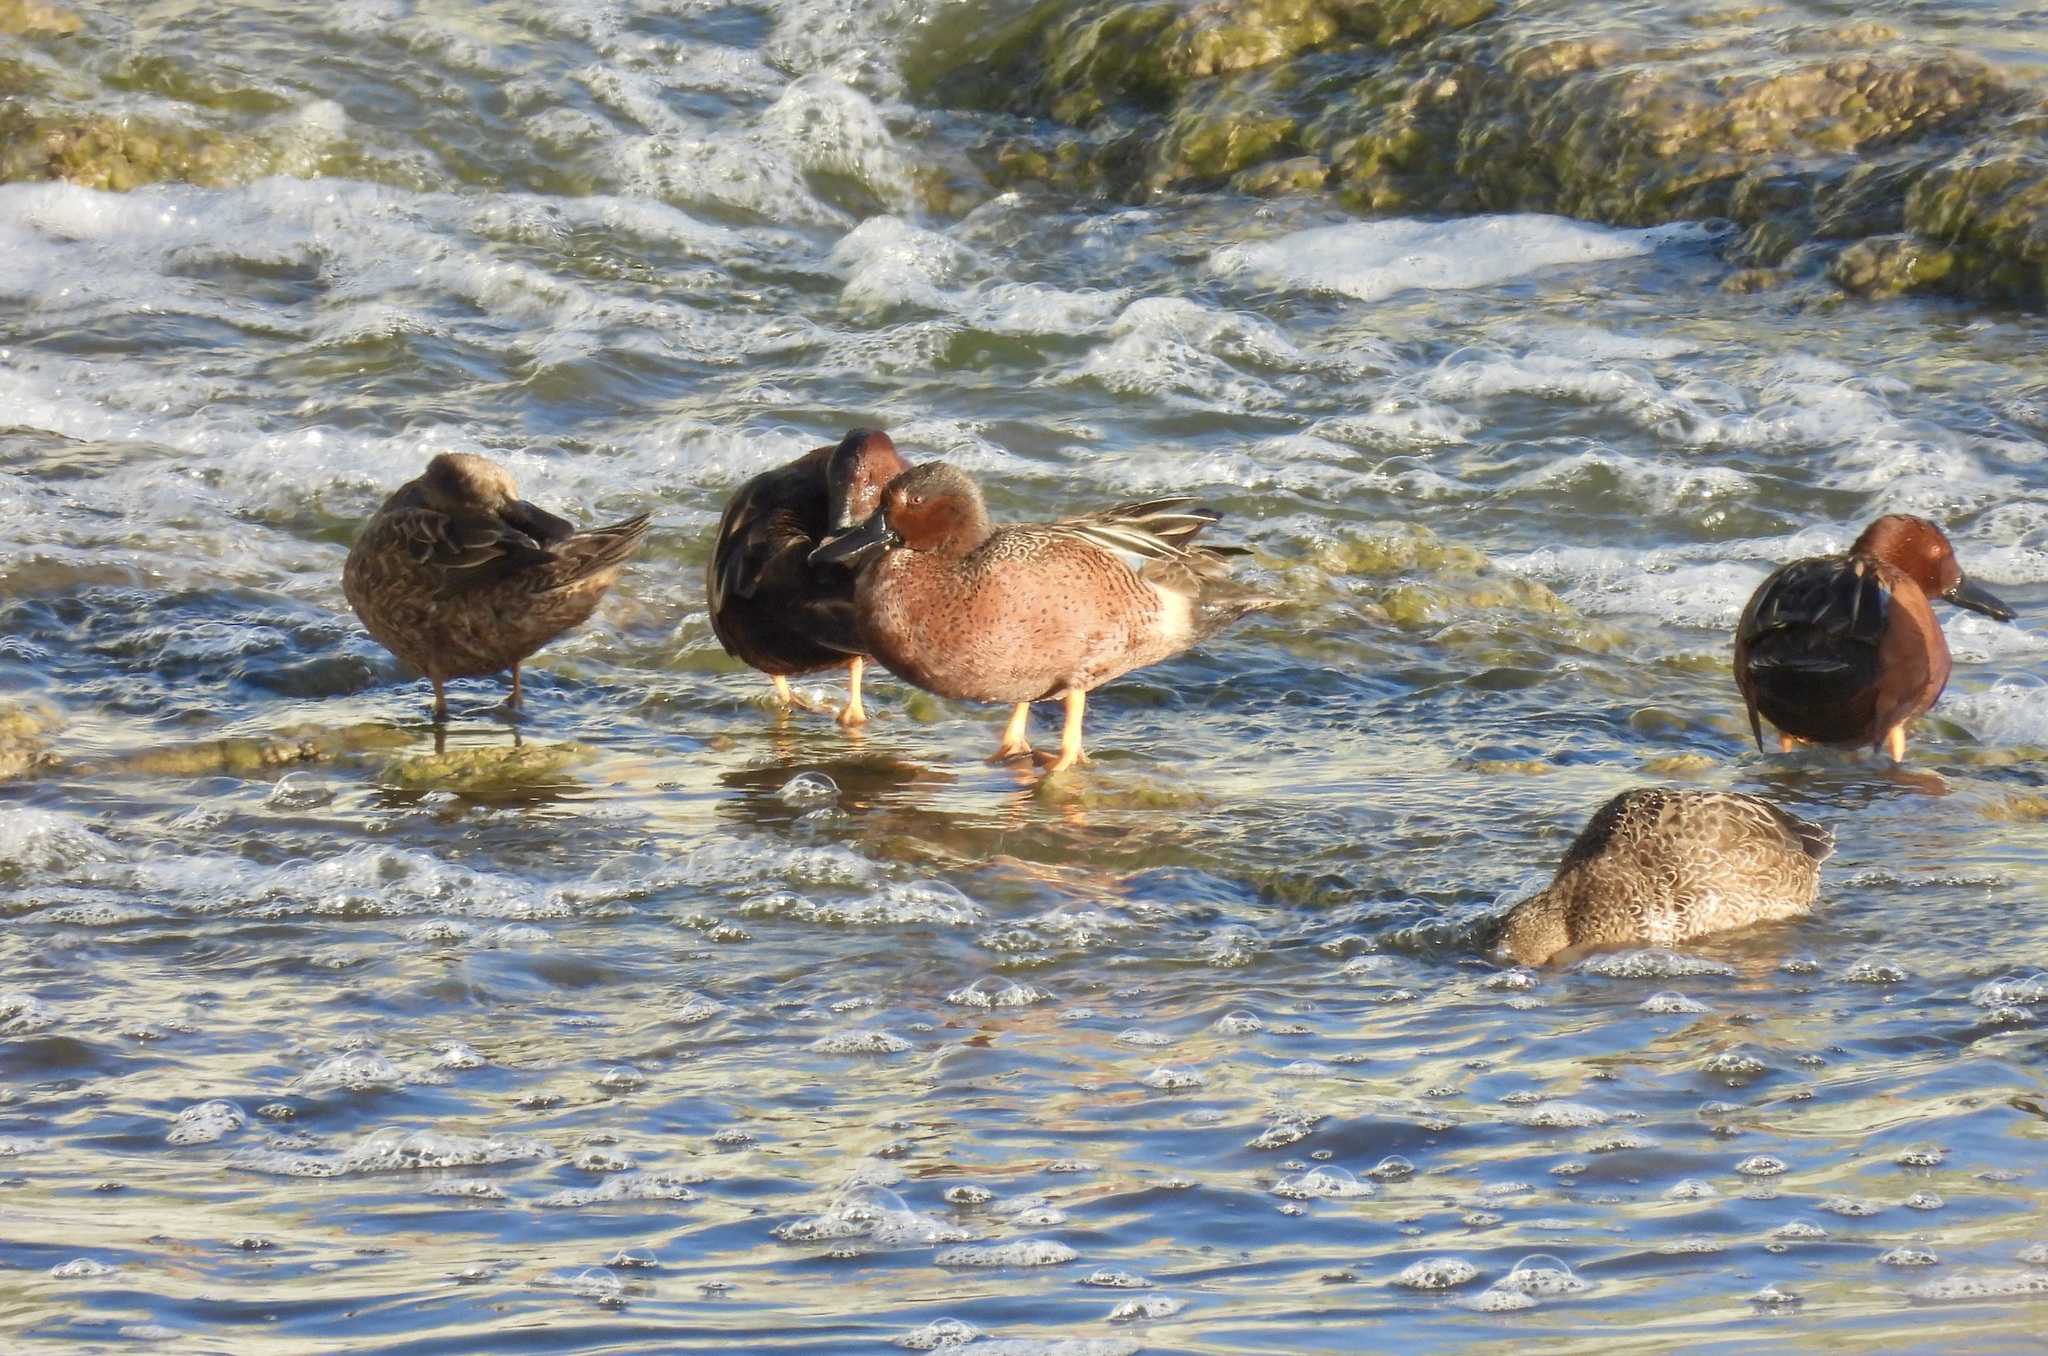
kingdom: Animalia
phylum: Chordata
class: Aves
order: Anseriformes
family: Anatidae
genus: Spatula
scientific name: Spatula cyanoptera
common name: Cinnamon teal
